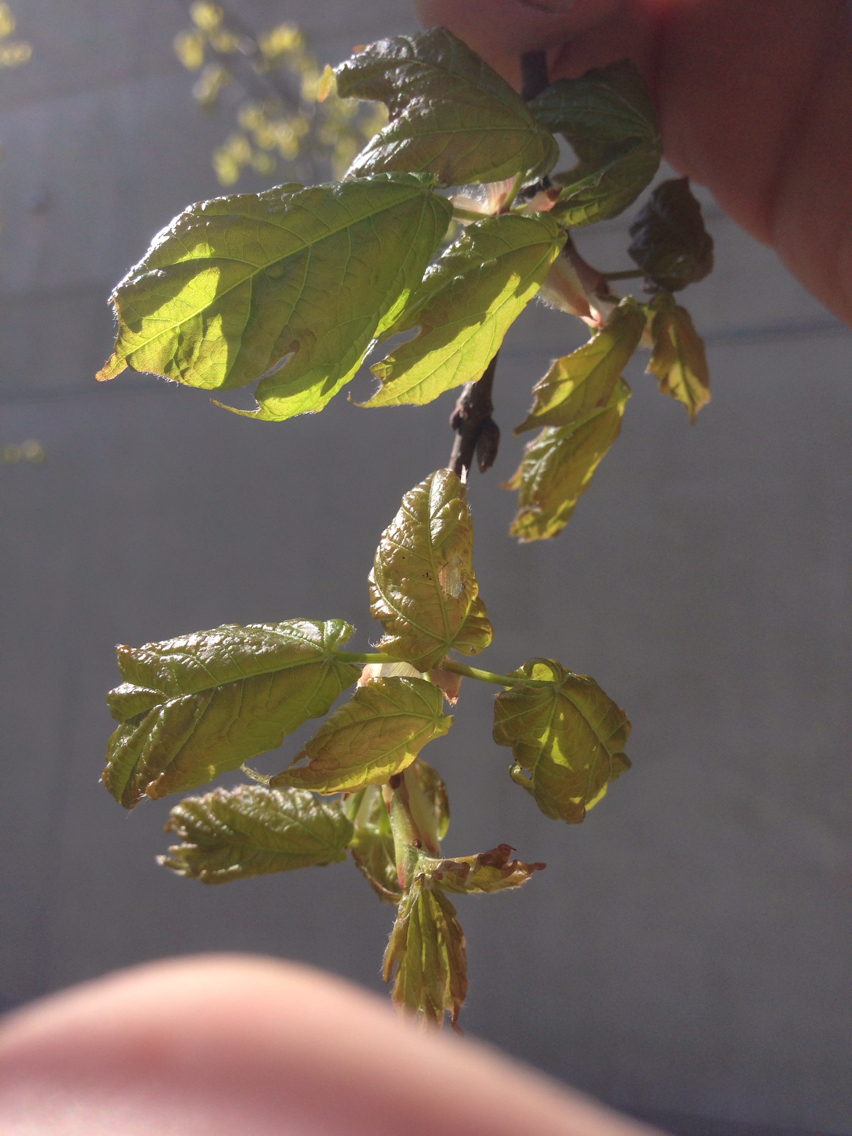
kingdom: Plantae
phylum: Tracheophyta
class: Magnoliopsida
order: Sapindales
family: Sapindaceae
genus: Acer
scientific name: Acer saccharum
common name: Sugar maple
